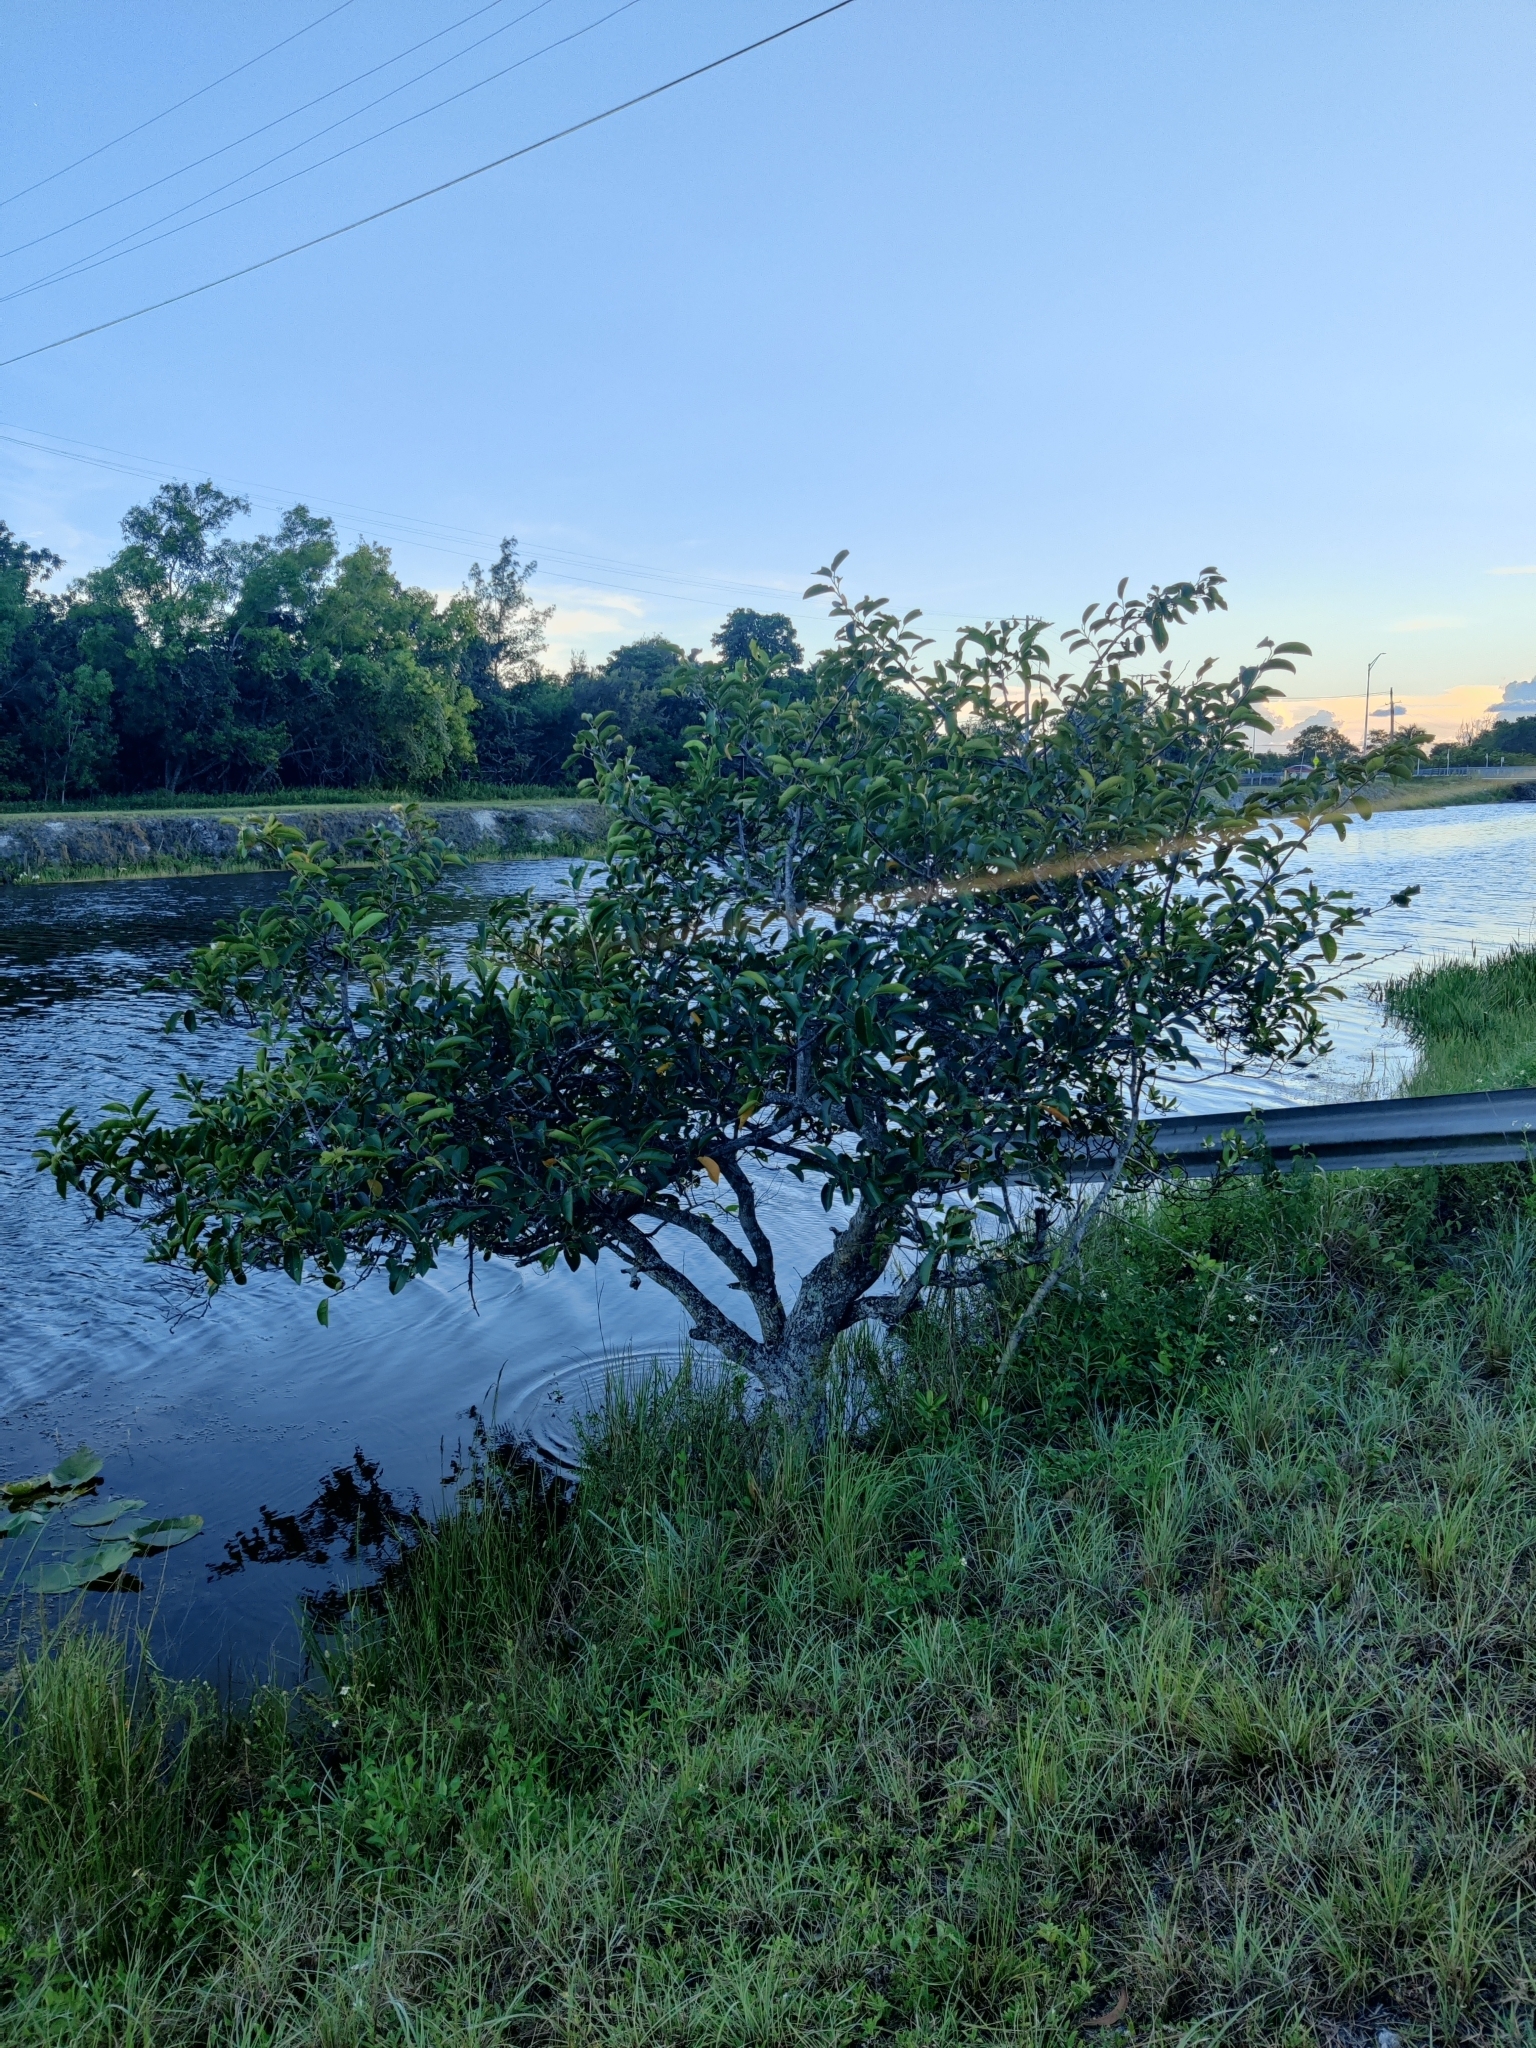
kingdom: Plantae
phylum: Tracheophyta
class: Magnoliopsida
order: Magnoliales
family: Annonaceae
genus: Annona
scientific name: Annona glabra
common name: Monkey apple
